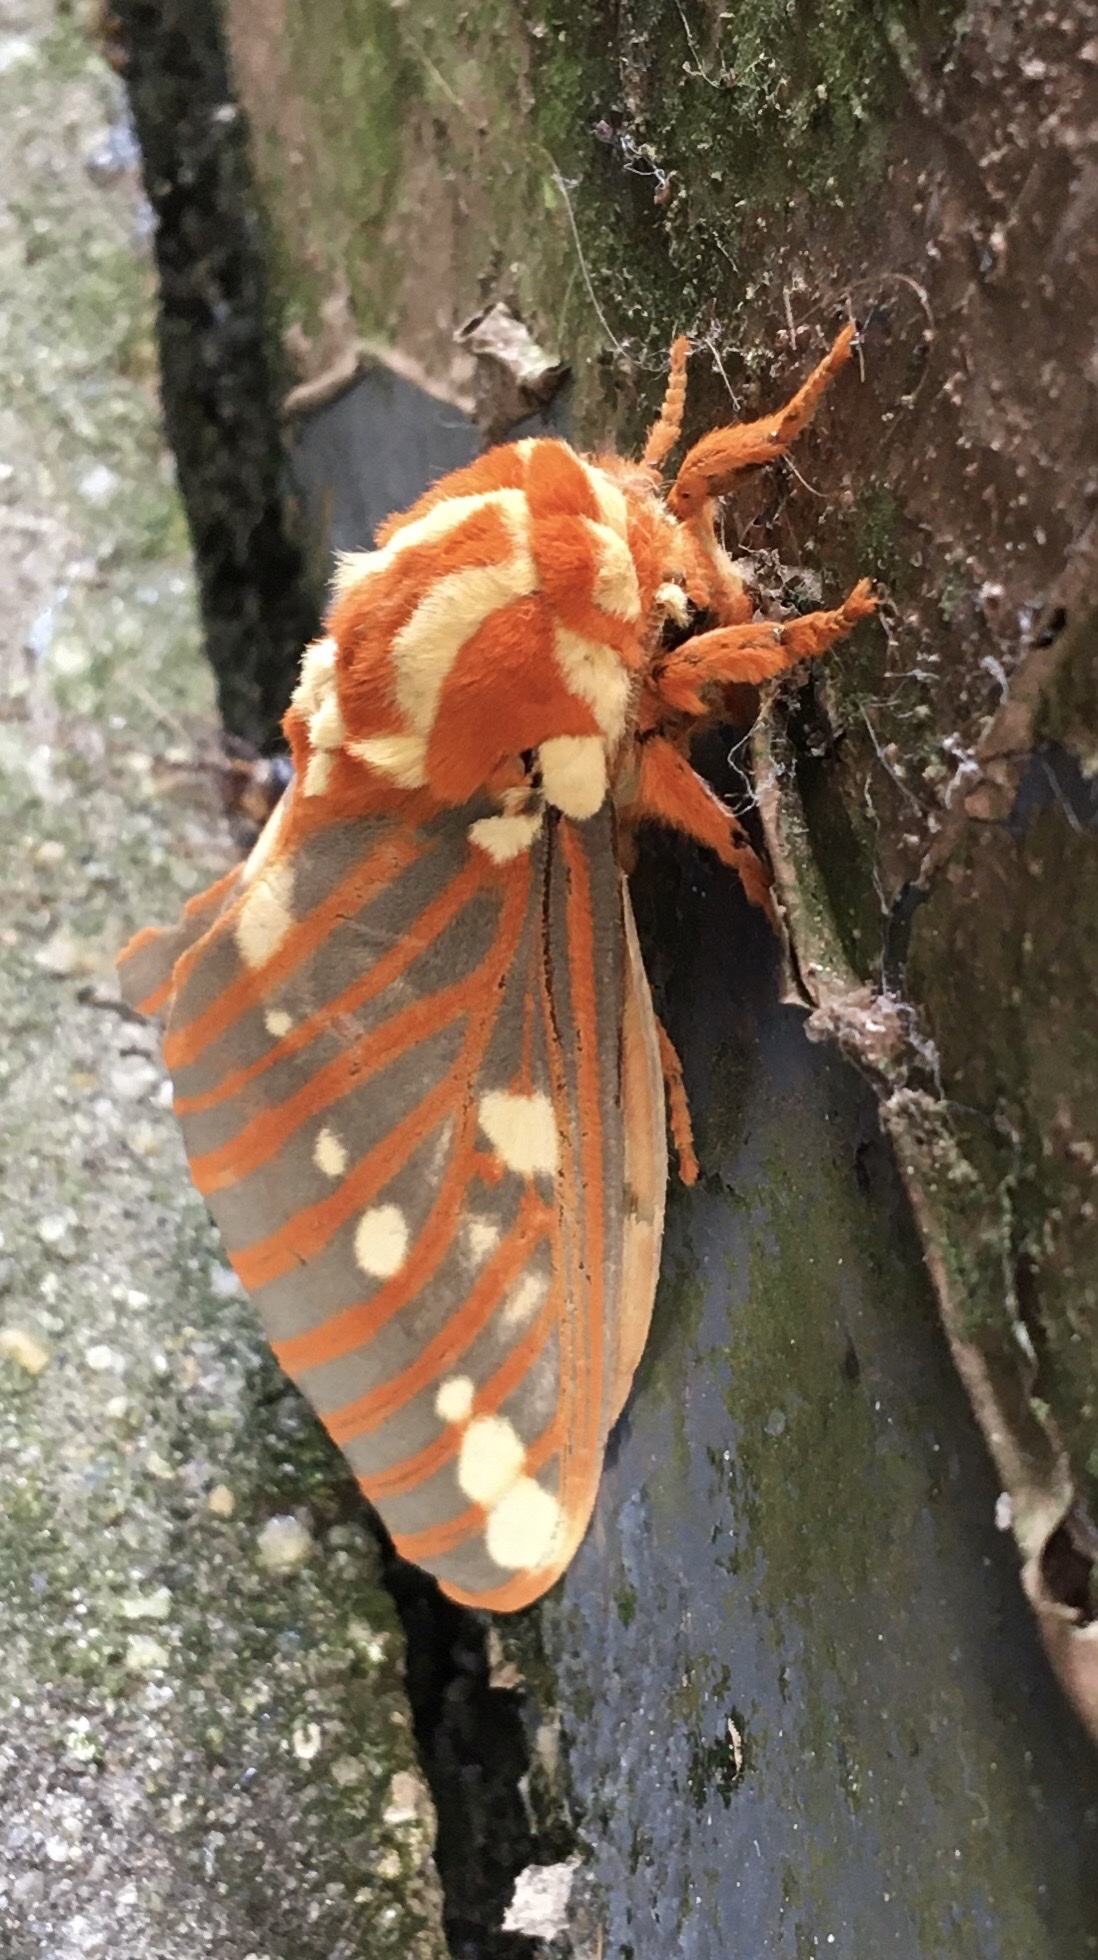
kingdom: Animalia
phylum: Arthropoda
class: Insecta
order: Lepidoptera
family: Saturniidae
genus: Citheronia
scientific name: Citheronia regalis
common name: Hickory horned devil
